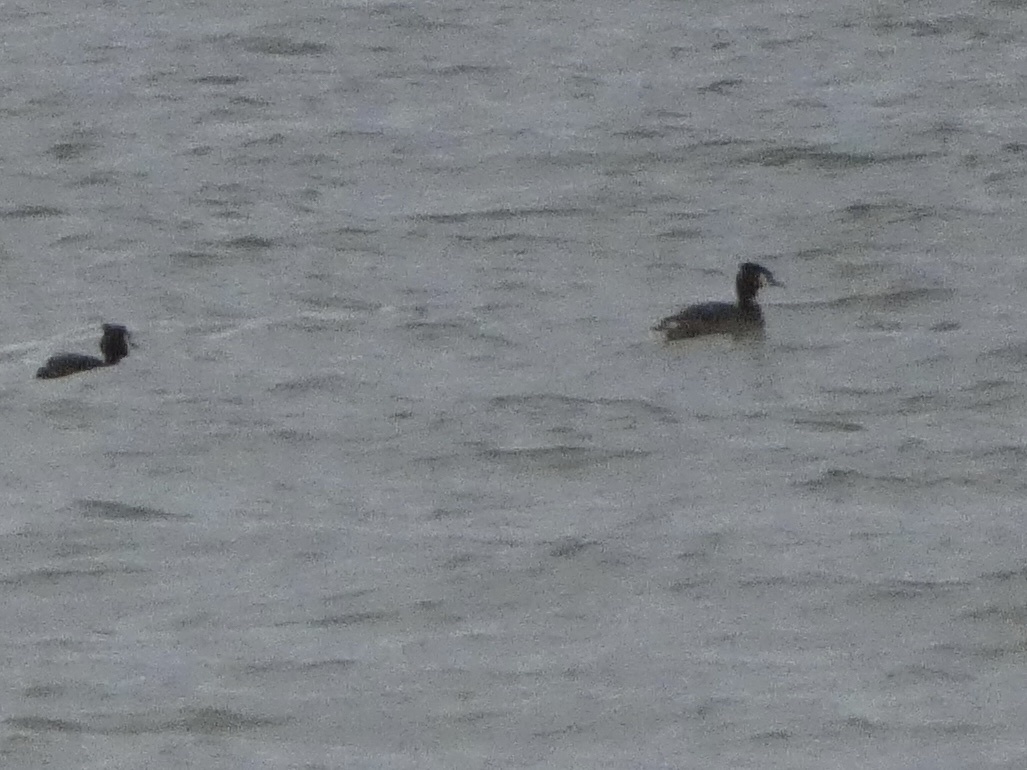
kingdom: Animalia
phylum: Chordata
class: Aves
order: Podicipediformes
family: Podicipedidae
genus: Podiceps
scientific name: Podiceps cristatus
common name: Great crested grebe
